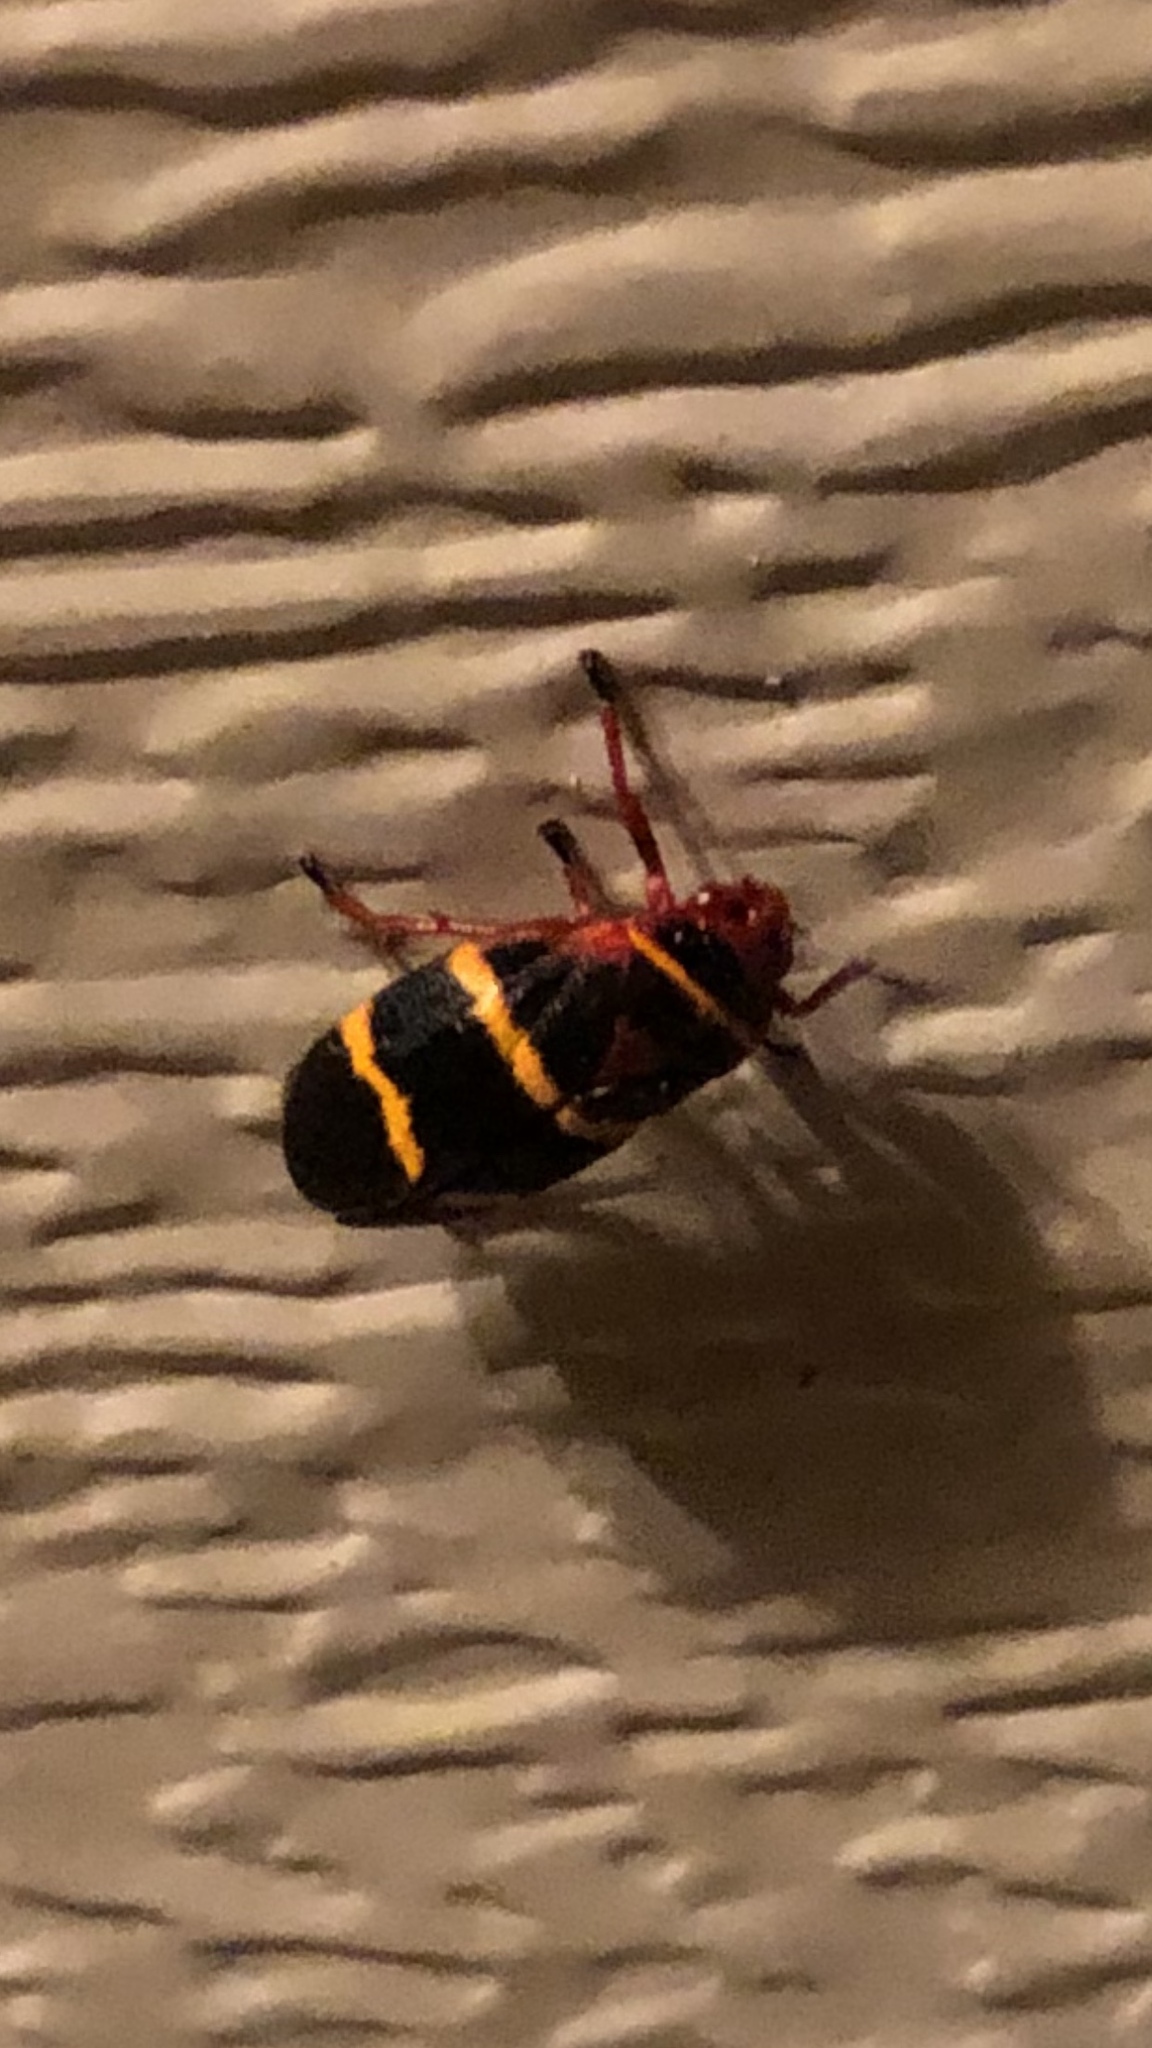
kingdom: Animalia
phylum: Arthropoda
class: Insecta
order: Hemiptera
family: Cercopidae
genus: Prosapia
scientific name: Prosapia bicincta
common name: Twolined spittlebug
